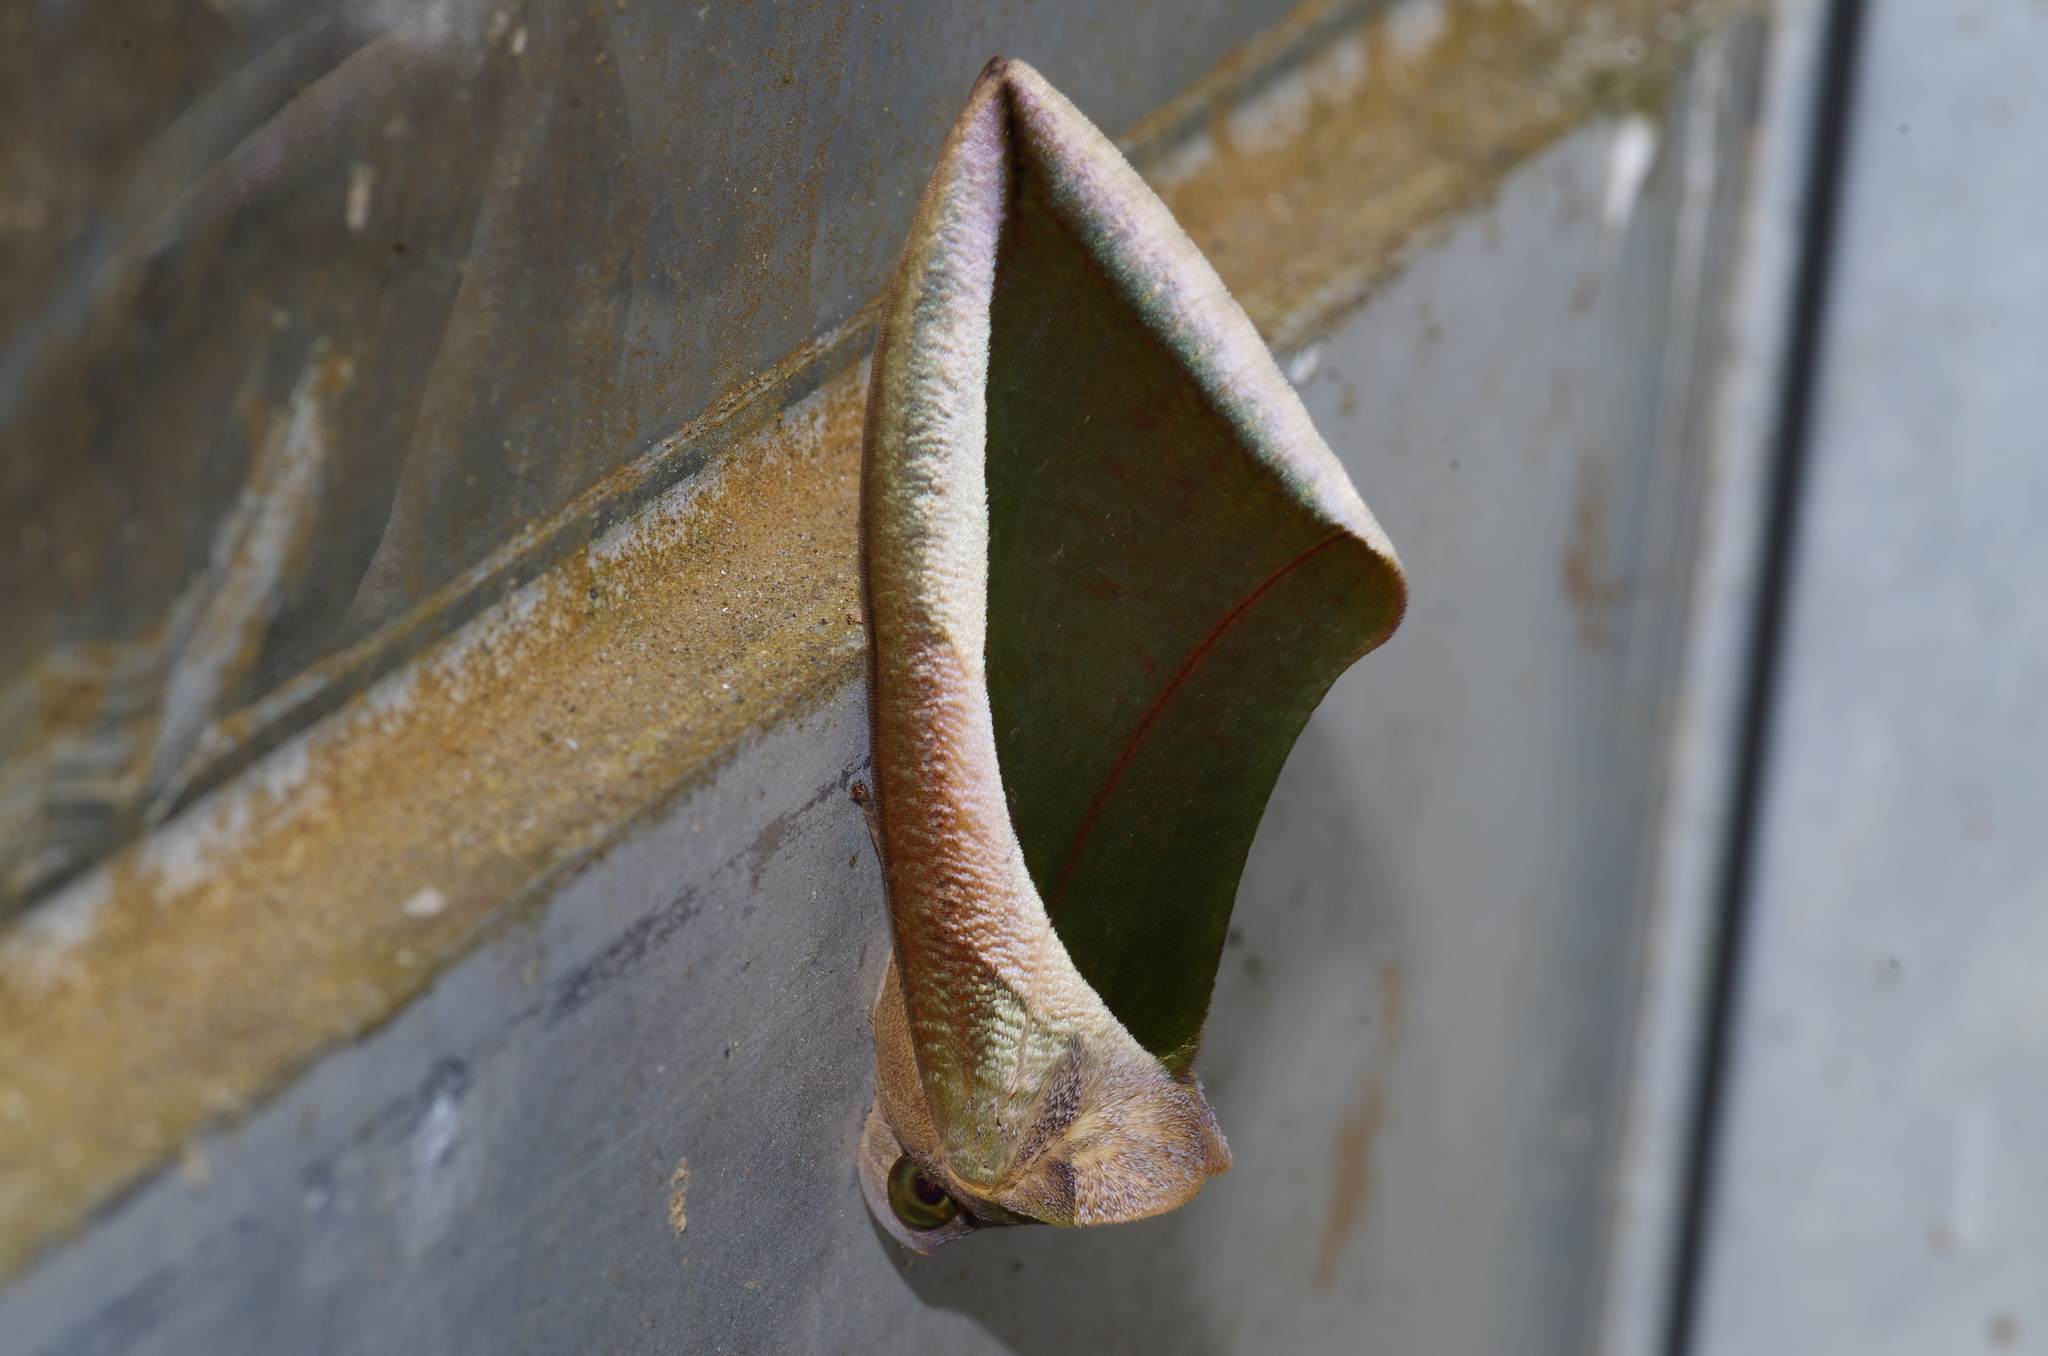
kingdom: Animalia
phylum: Arthropoda
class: Insecta
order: Lepidoptera
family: Erebidae
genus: Eudocima
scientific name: Eudocima salaminia
